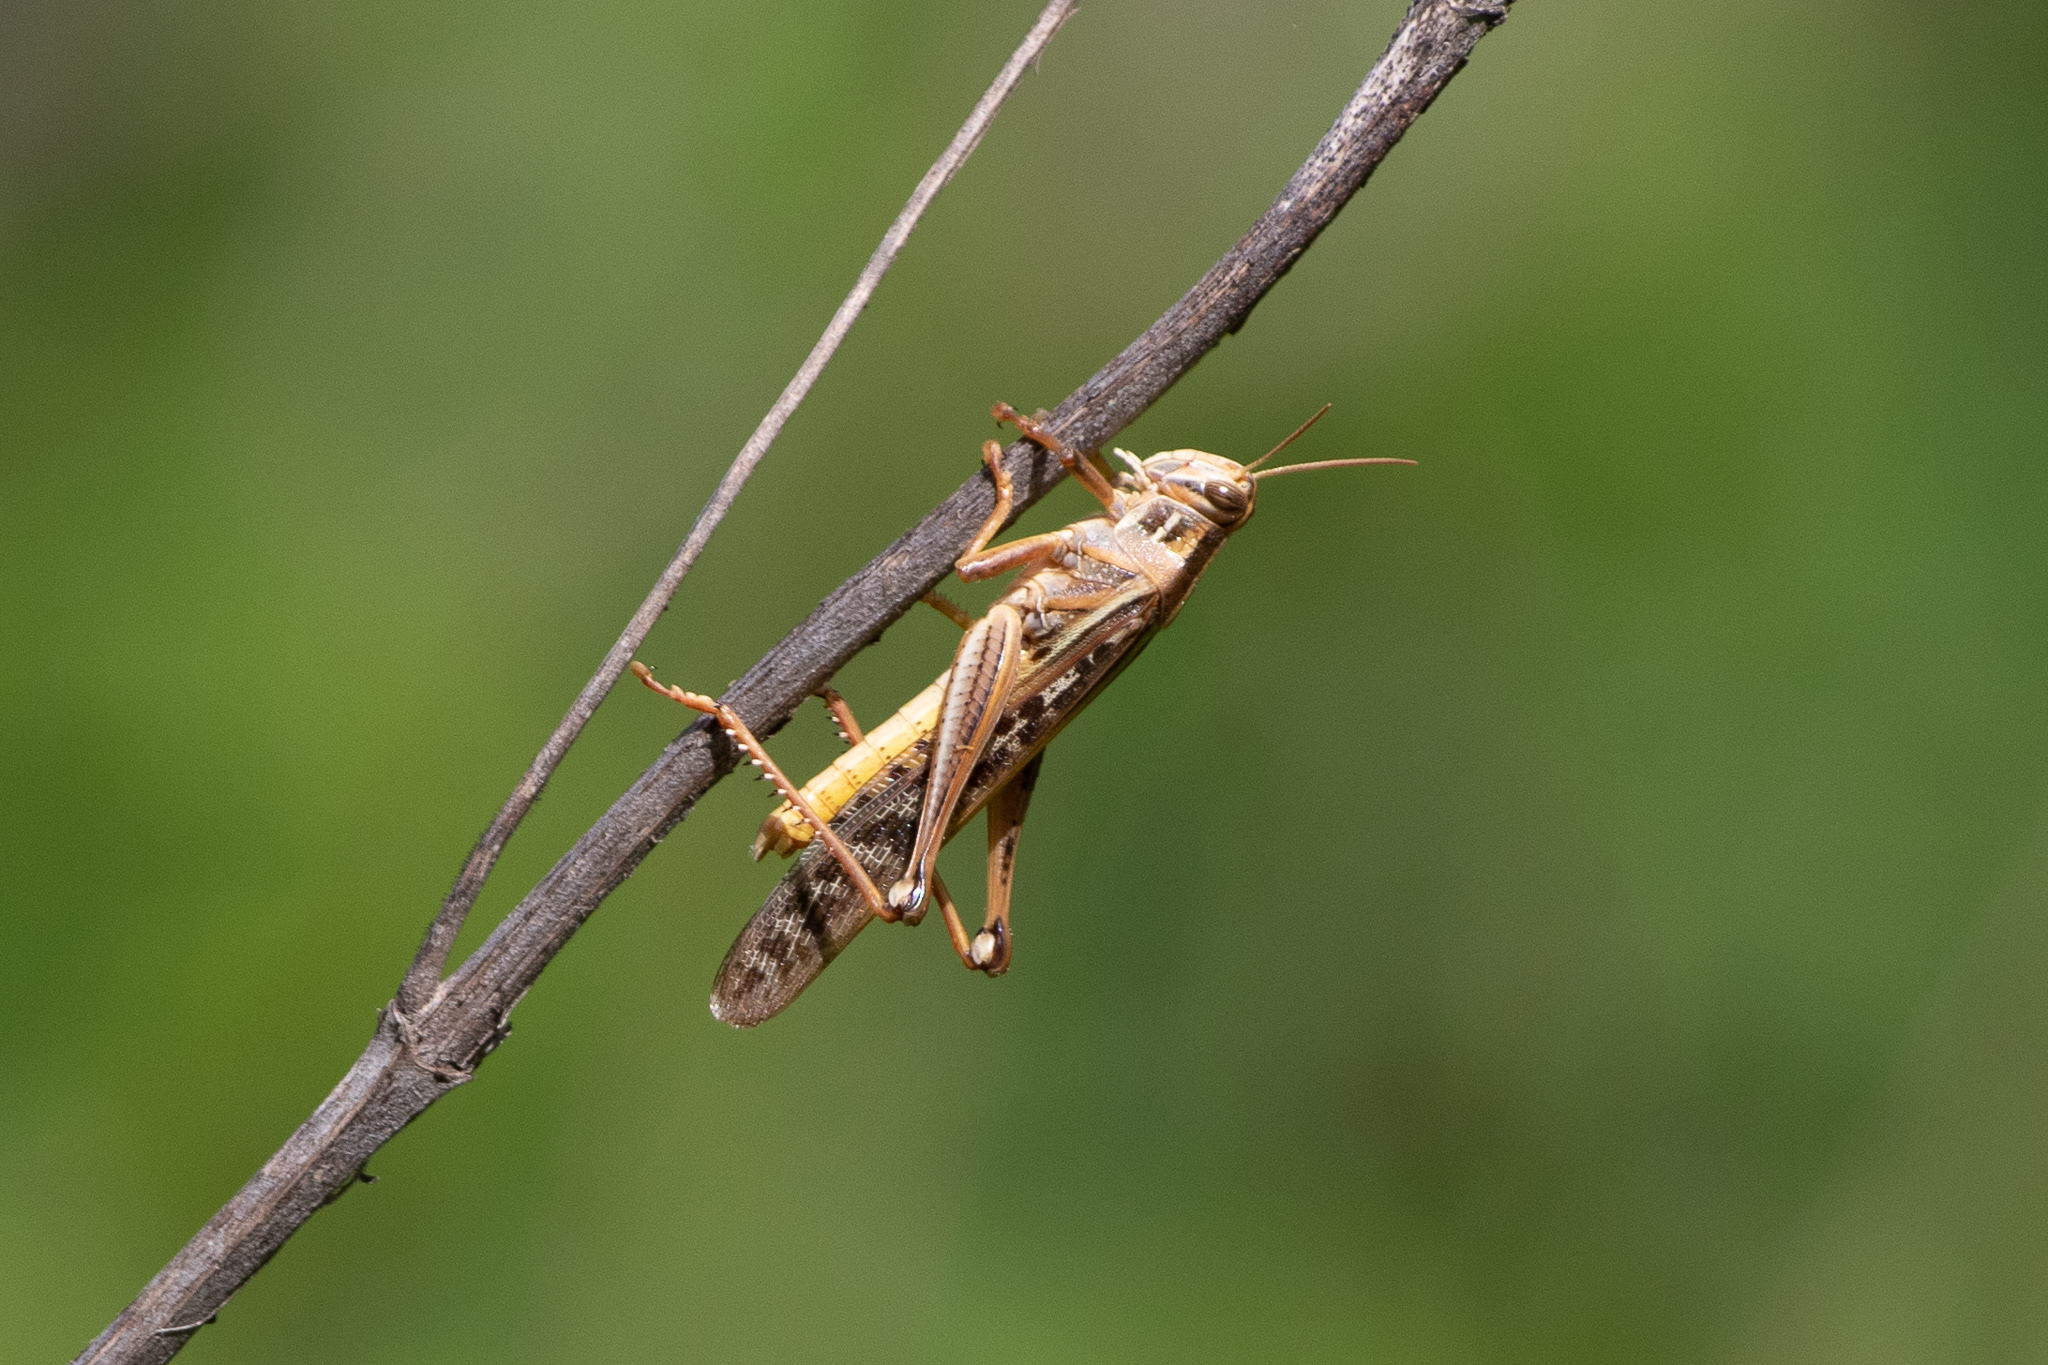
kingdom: Animalia
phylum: Arthropoda
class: Insecta
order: Orthoptera
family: Acrididae
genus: Schistocerca
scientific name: Schistocerca americana
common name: American bird locust
